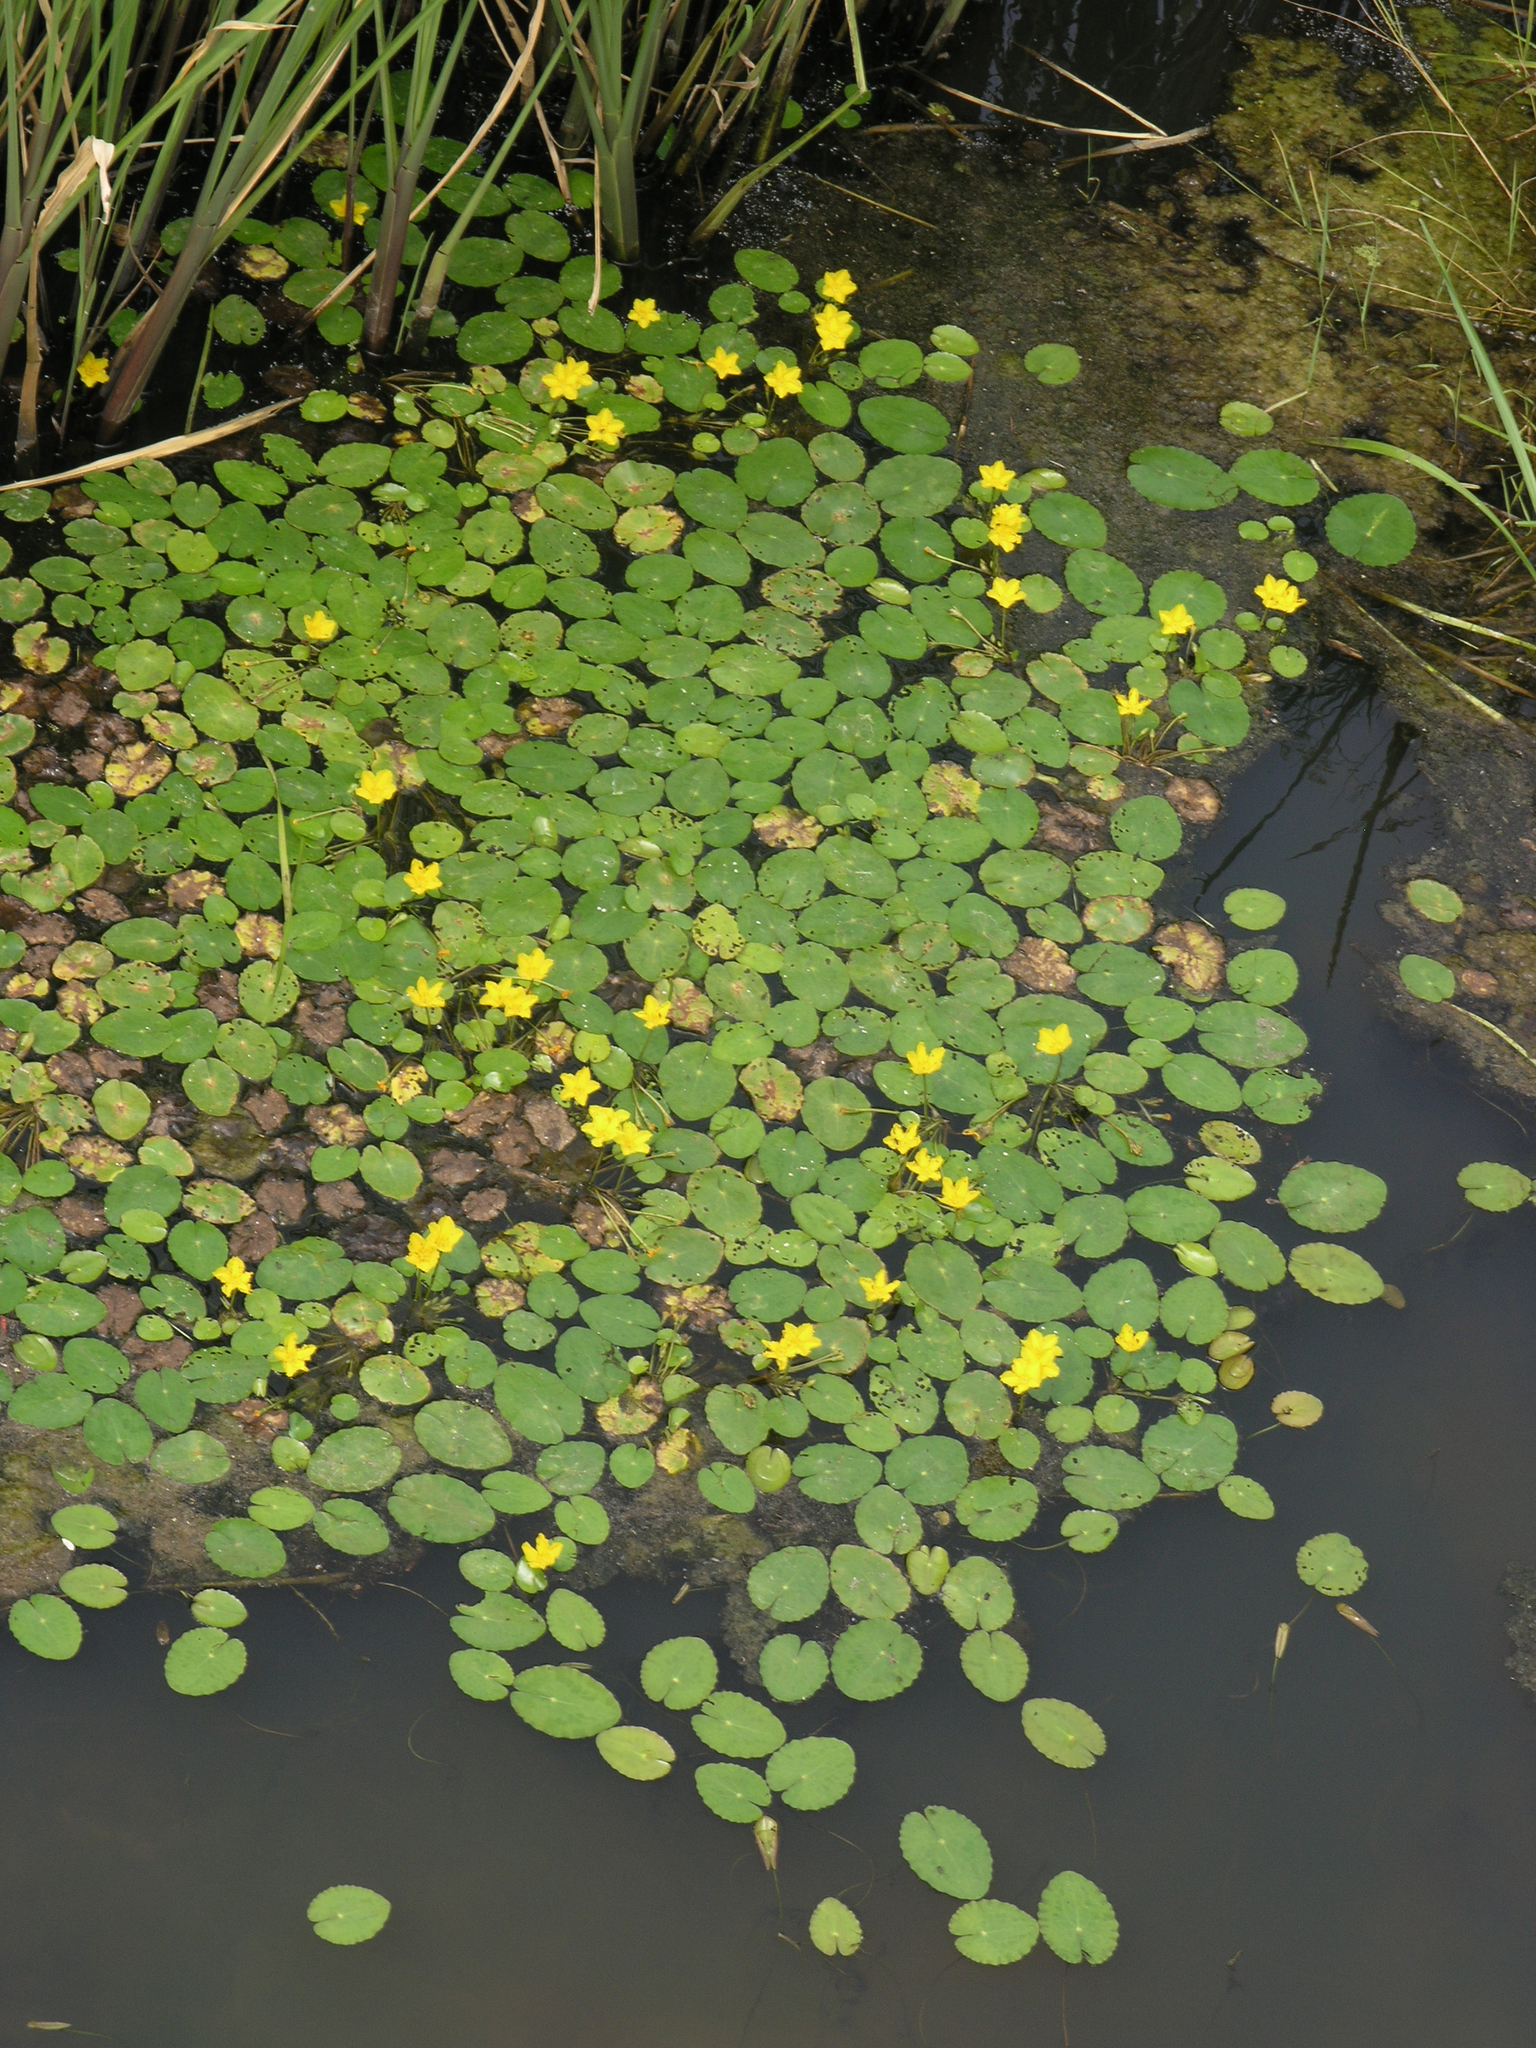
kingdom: Plantae
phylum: Tracheophyta
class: Magnoliopsida
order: Asterales
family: Menyanthaceae
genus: Nymphoides
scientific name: Nymphoides peltata
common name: Fringed water-lily
